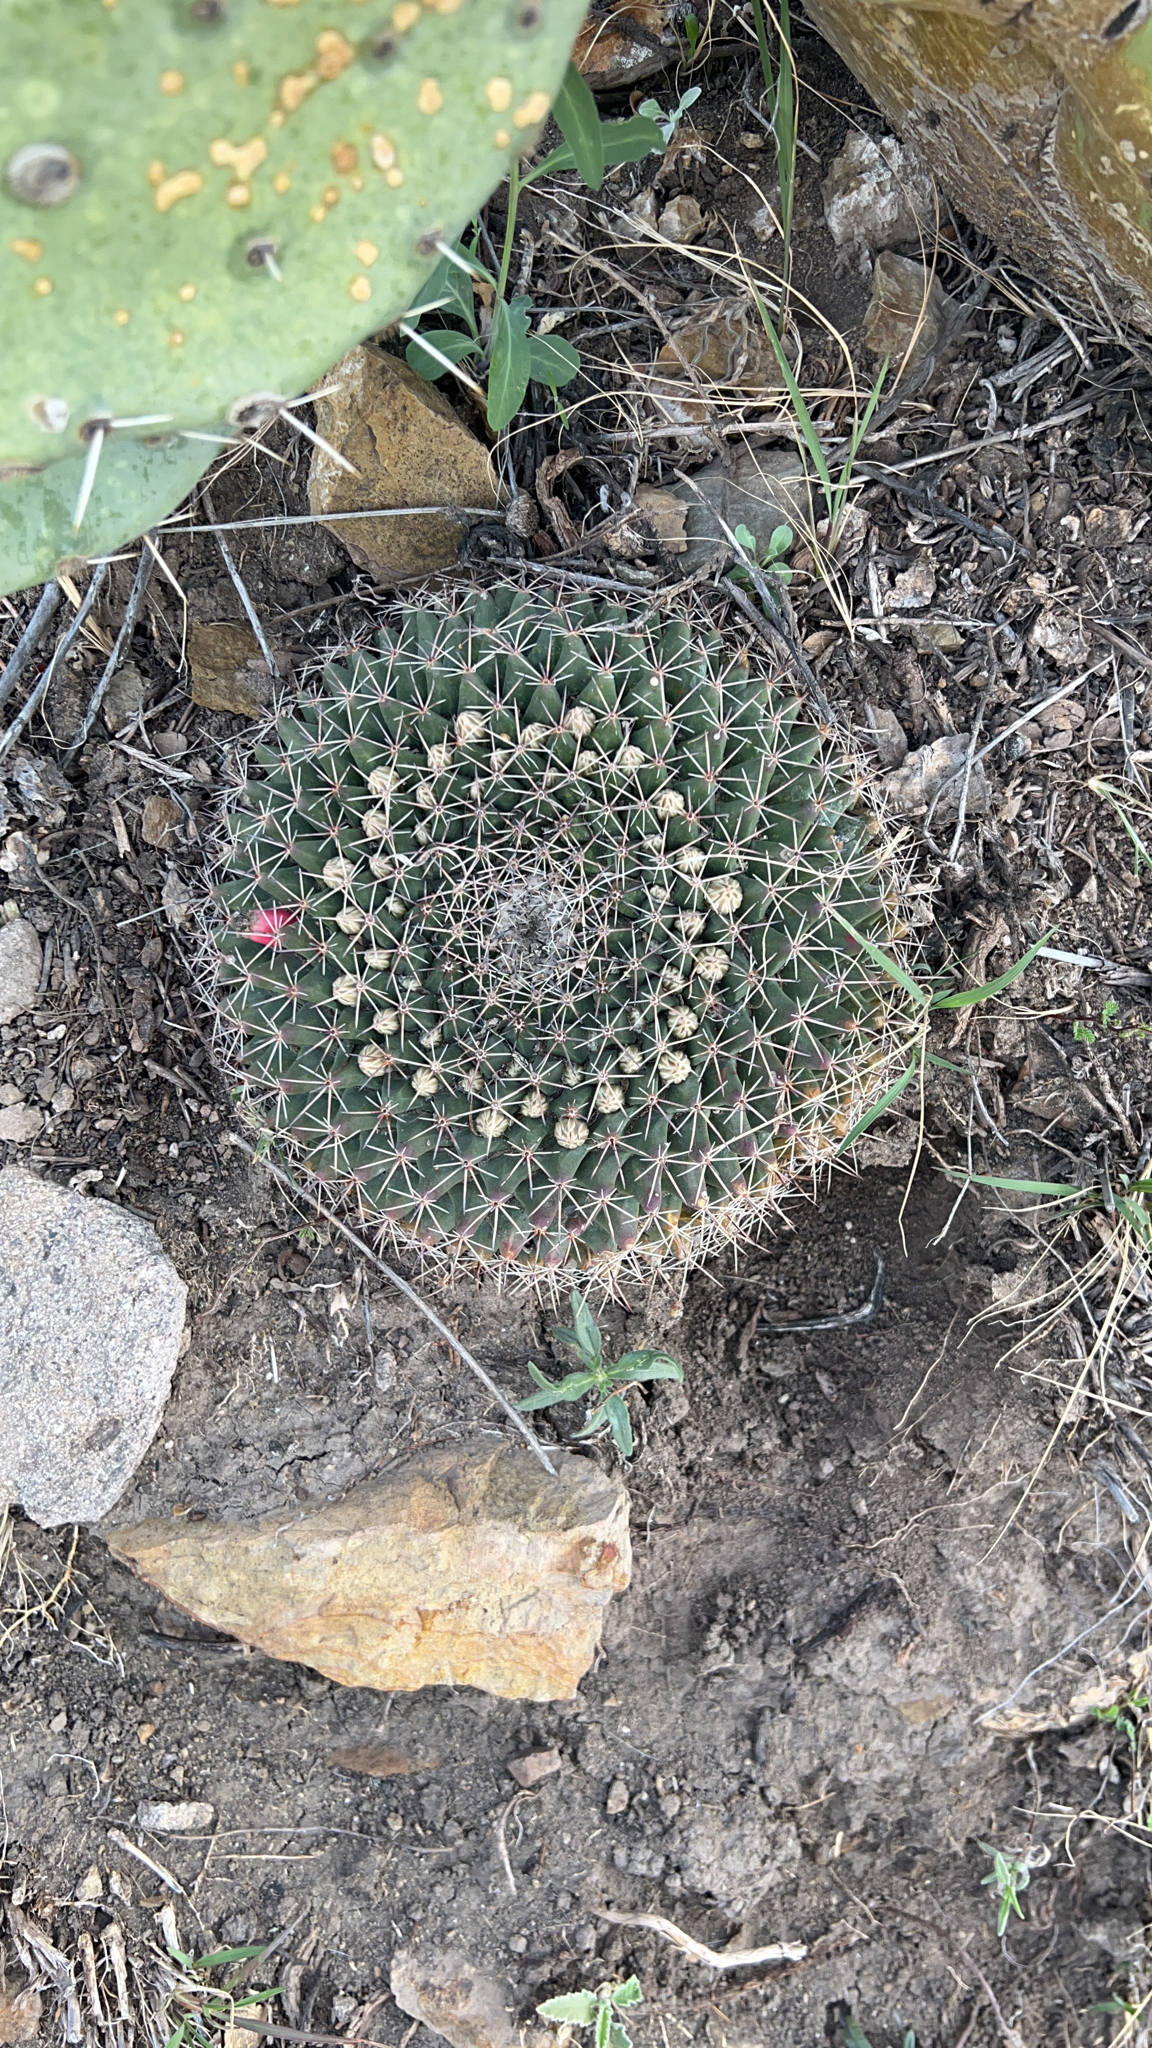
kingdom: Plantae
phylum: Tracheophyta
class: Magnoliopsida
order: Caryophyllales
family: Cactaceae
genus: Mammillaria
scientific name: Mammillaria heyderi
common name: Little nipple cactus
